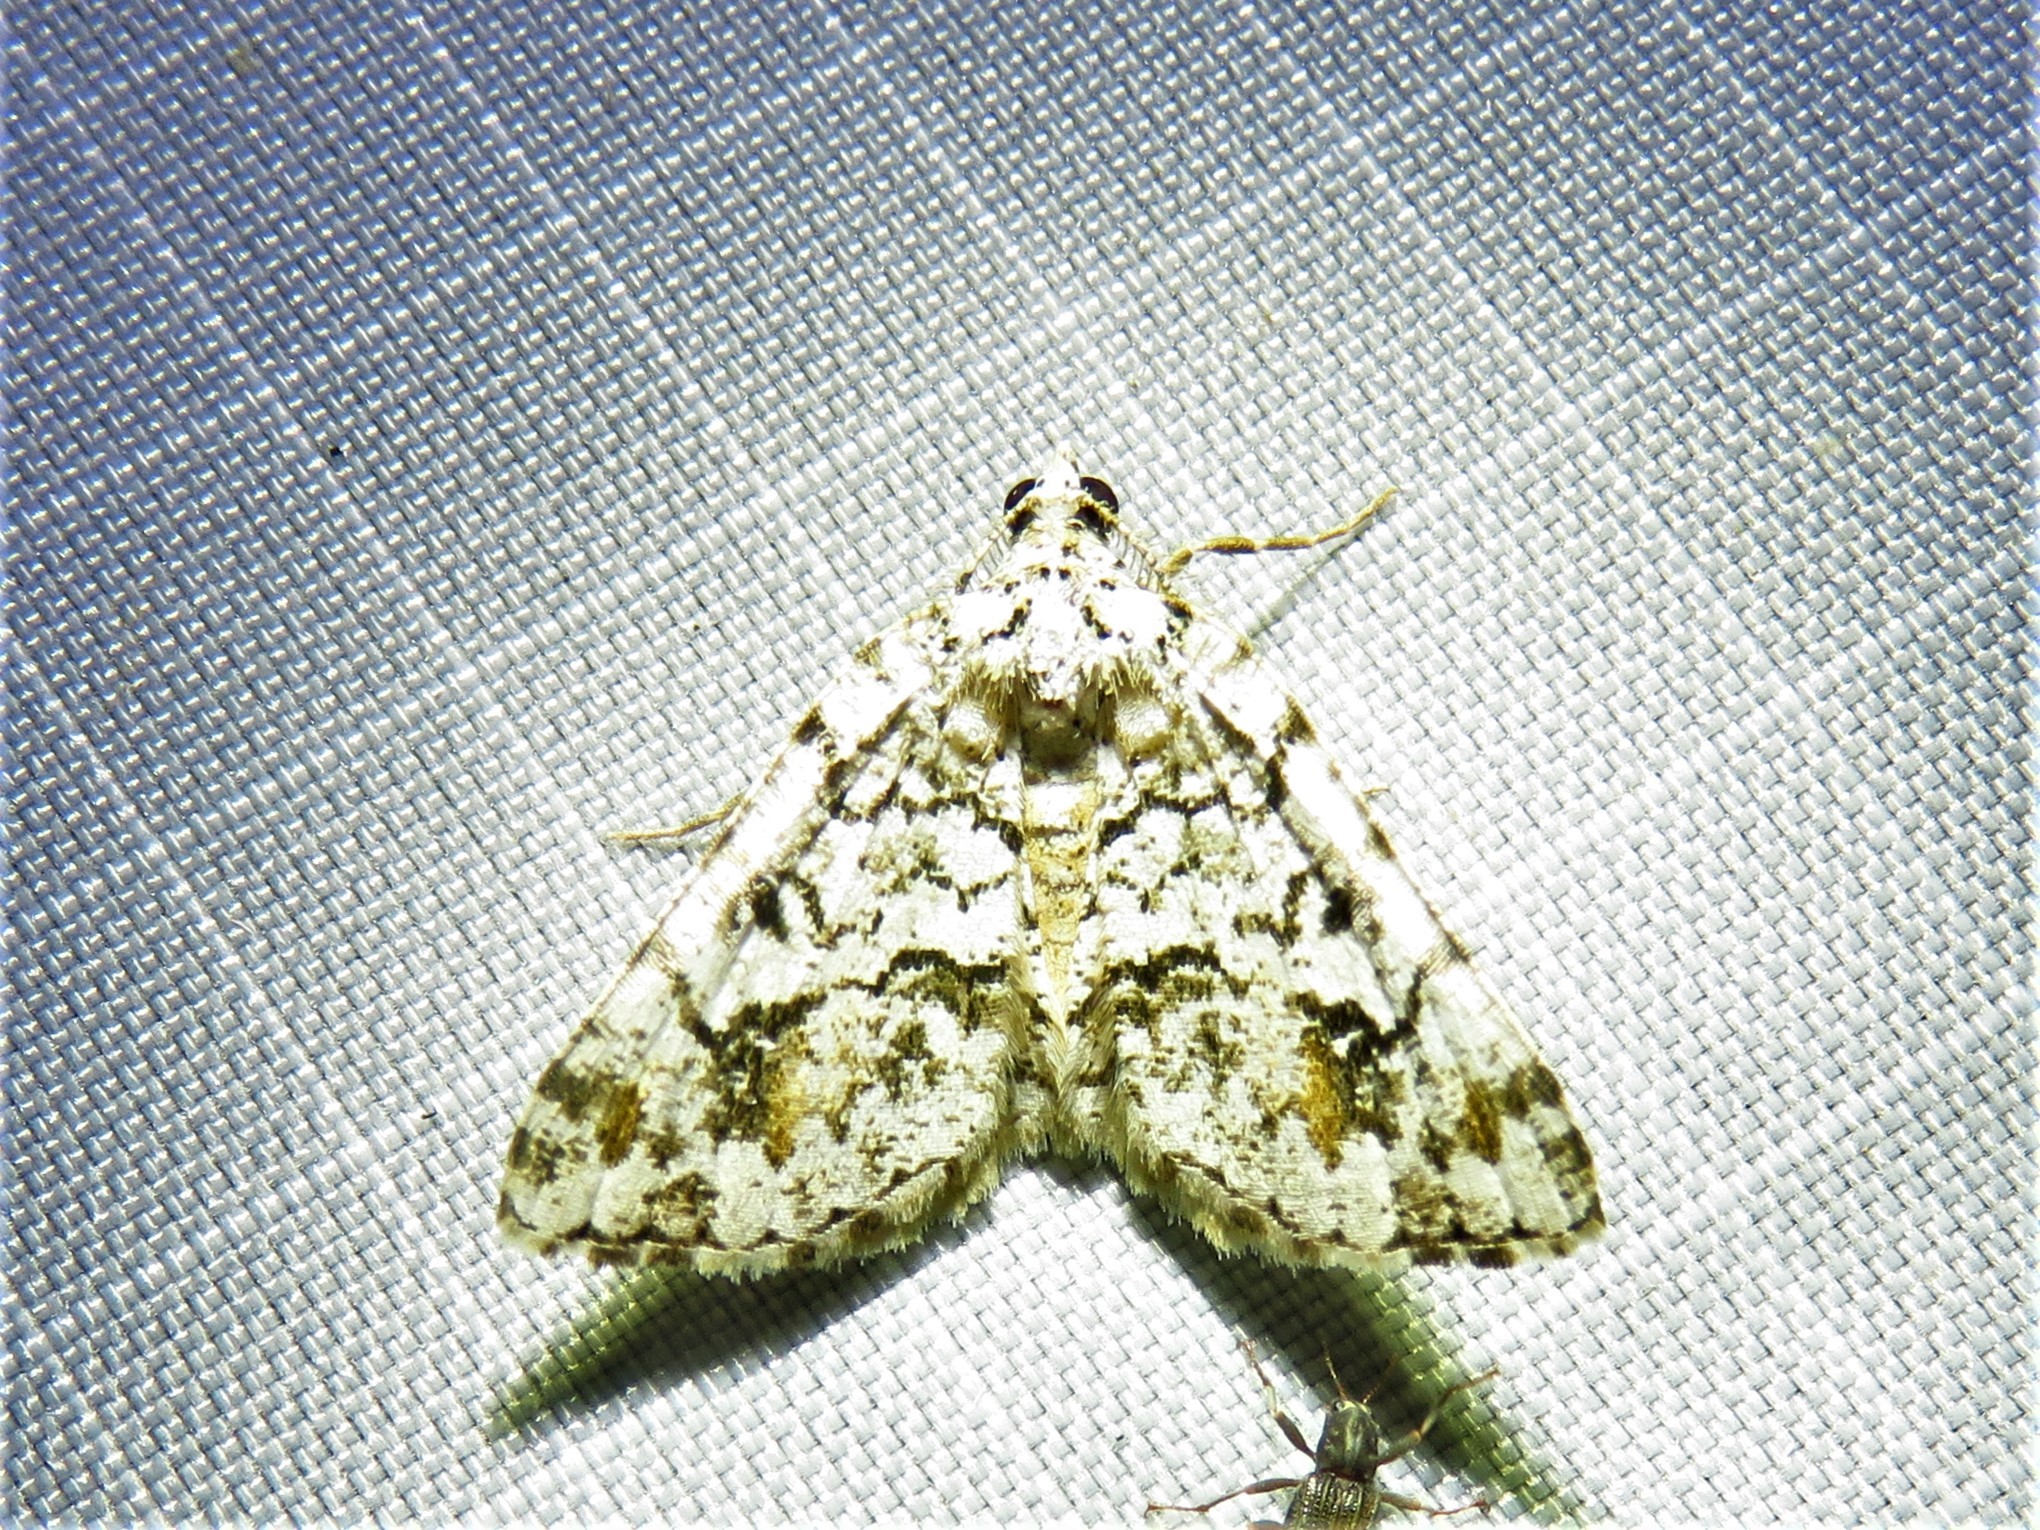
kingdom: Animalia
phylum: Arthropoda
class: Insecta
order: Lepidoptera
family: Geometridae
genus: Macaria
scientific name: Macaria graphidaria
